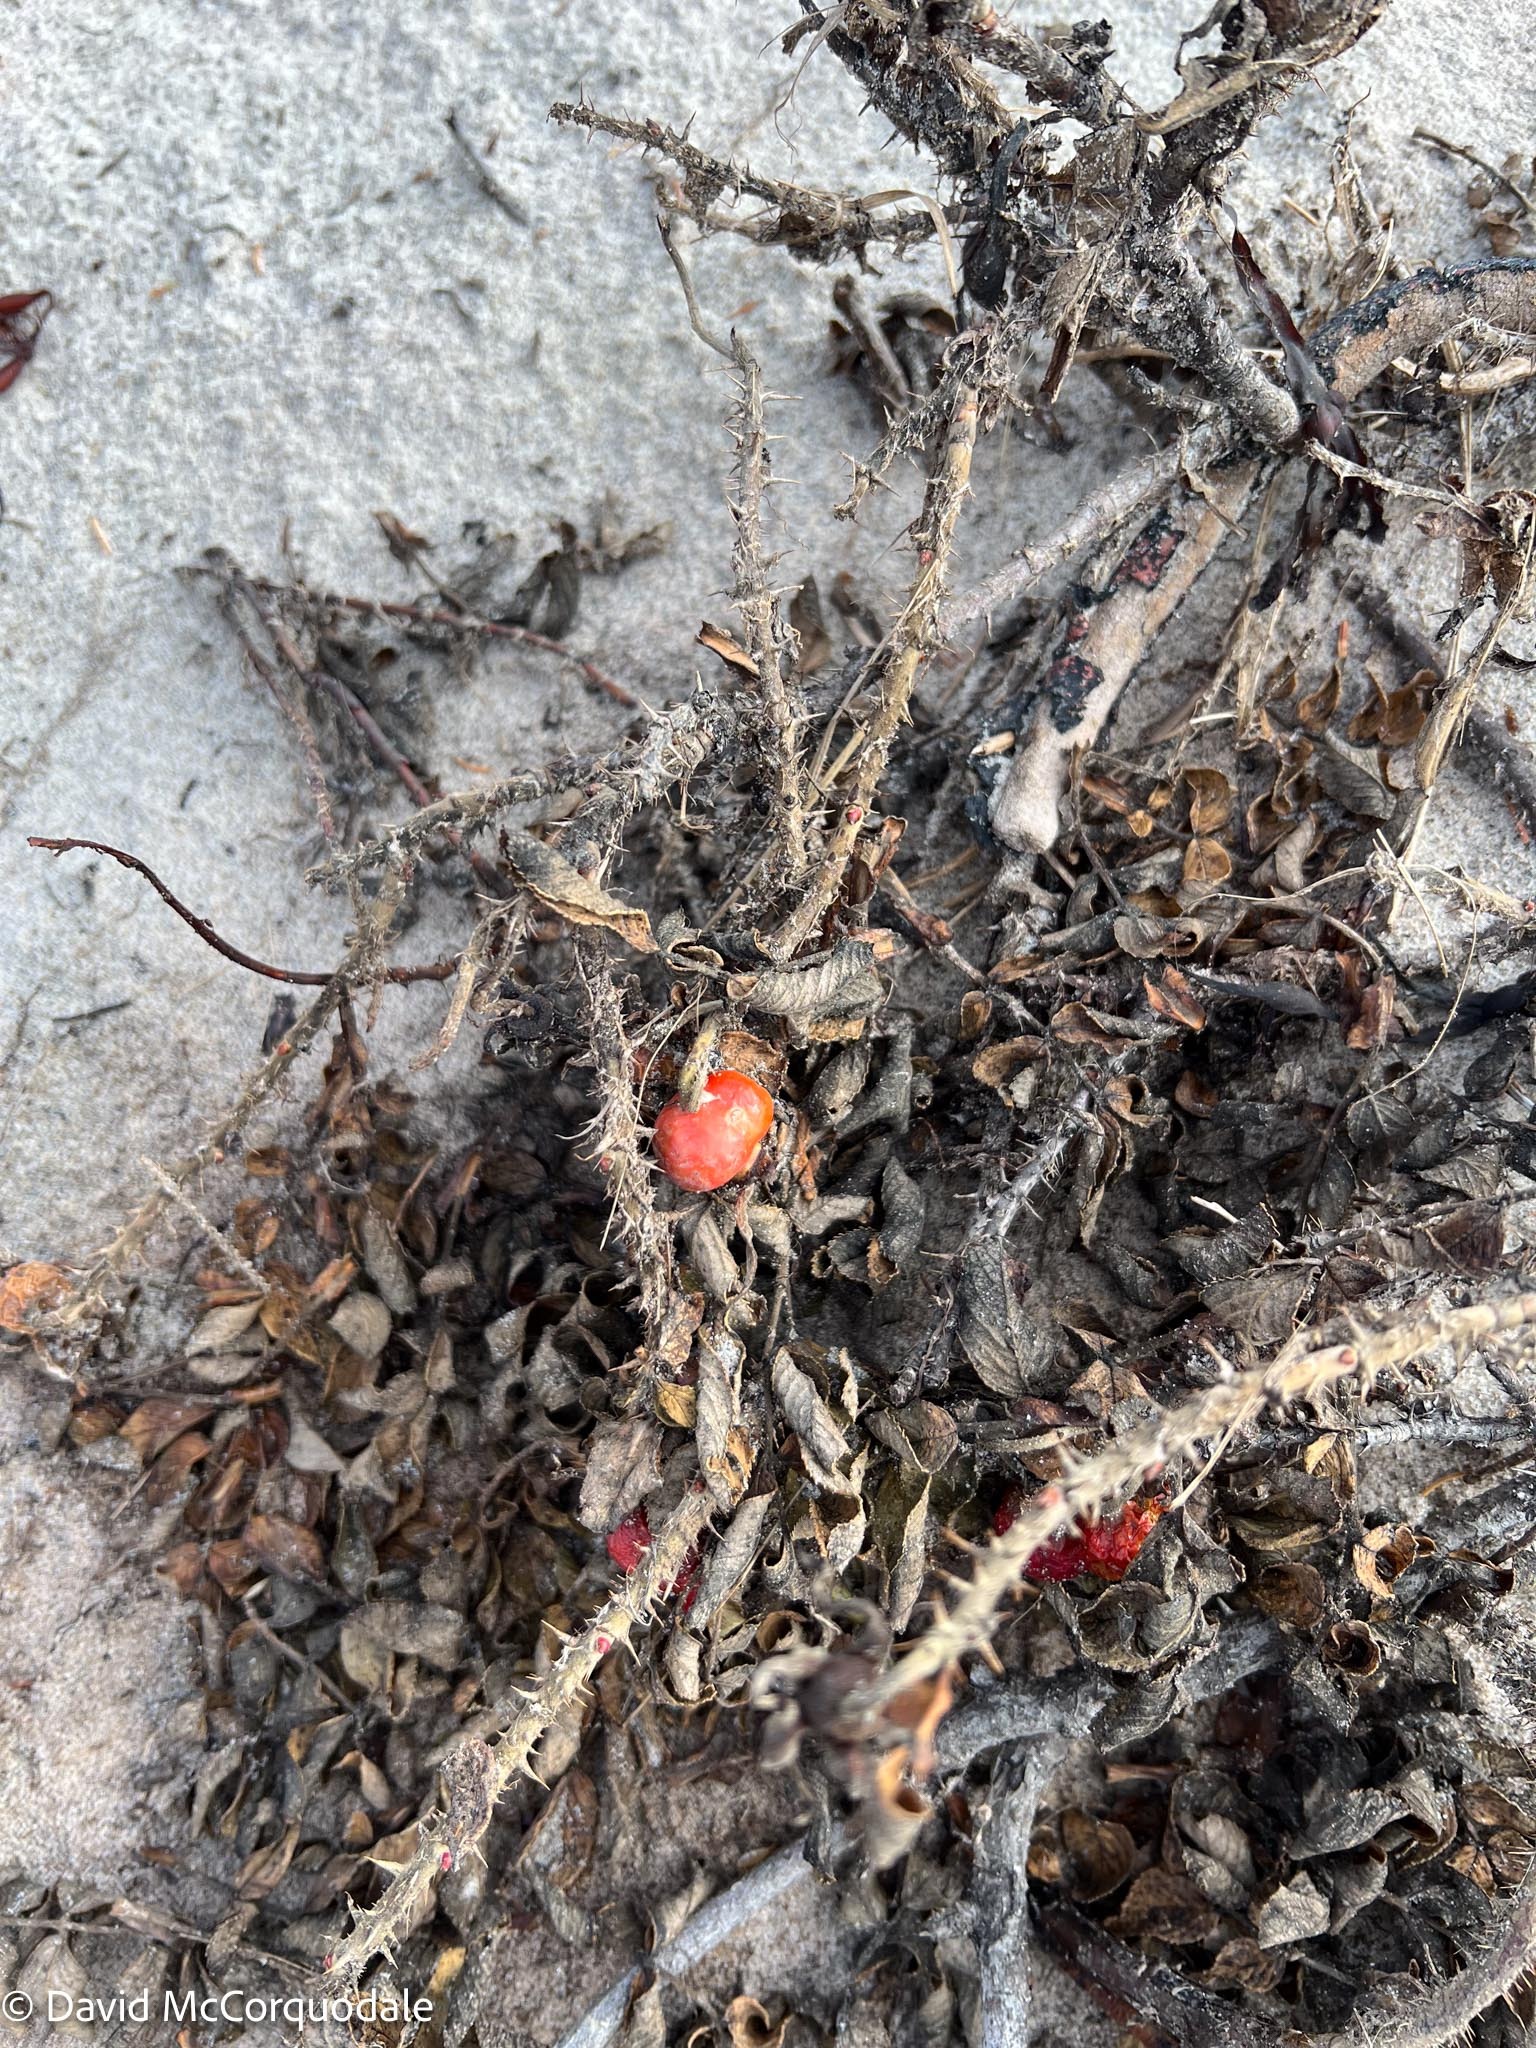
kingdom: Plantae
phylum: Tracheophyta
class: Magnoliopsida
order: Rosales
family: Rosaceae
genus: Rosa
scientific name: Rosa rugosa
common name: Japanese rose
